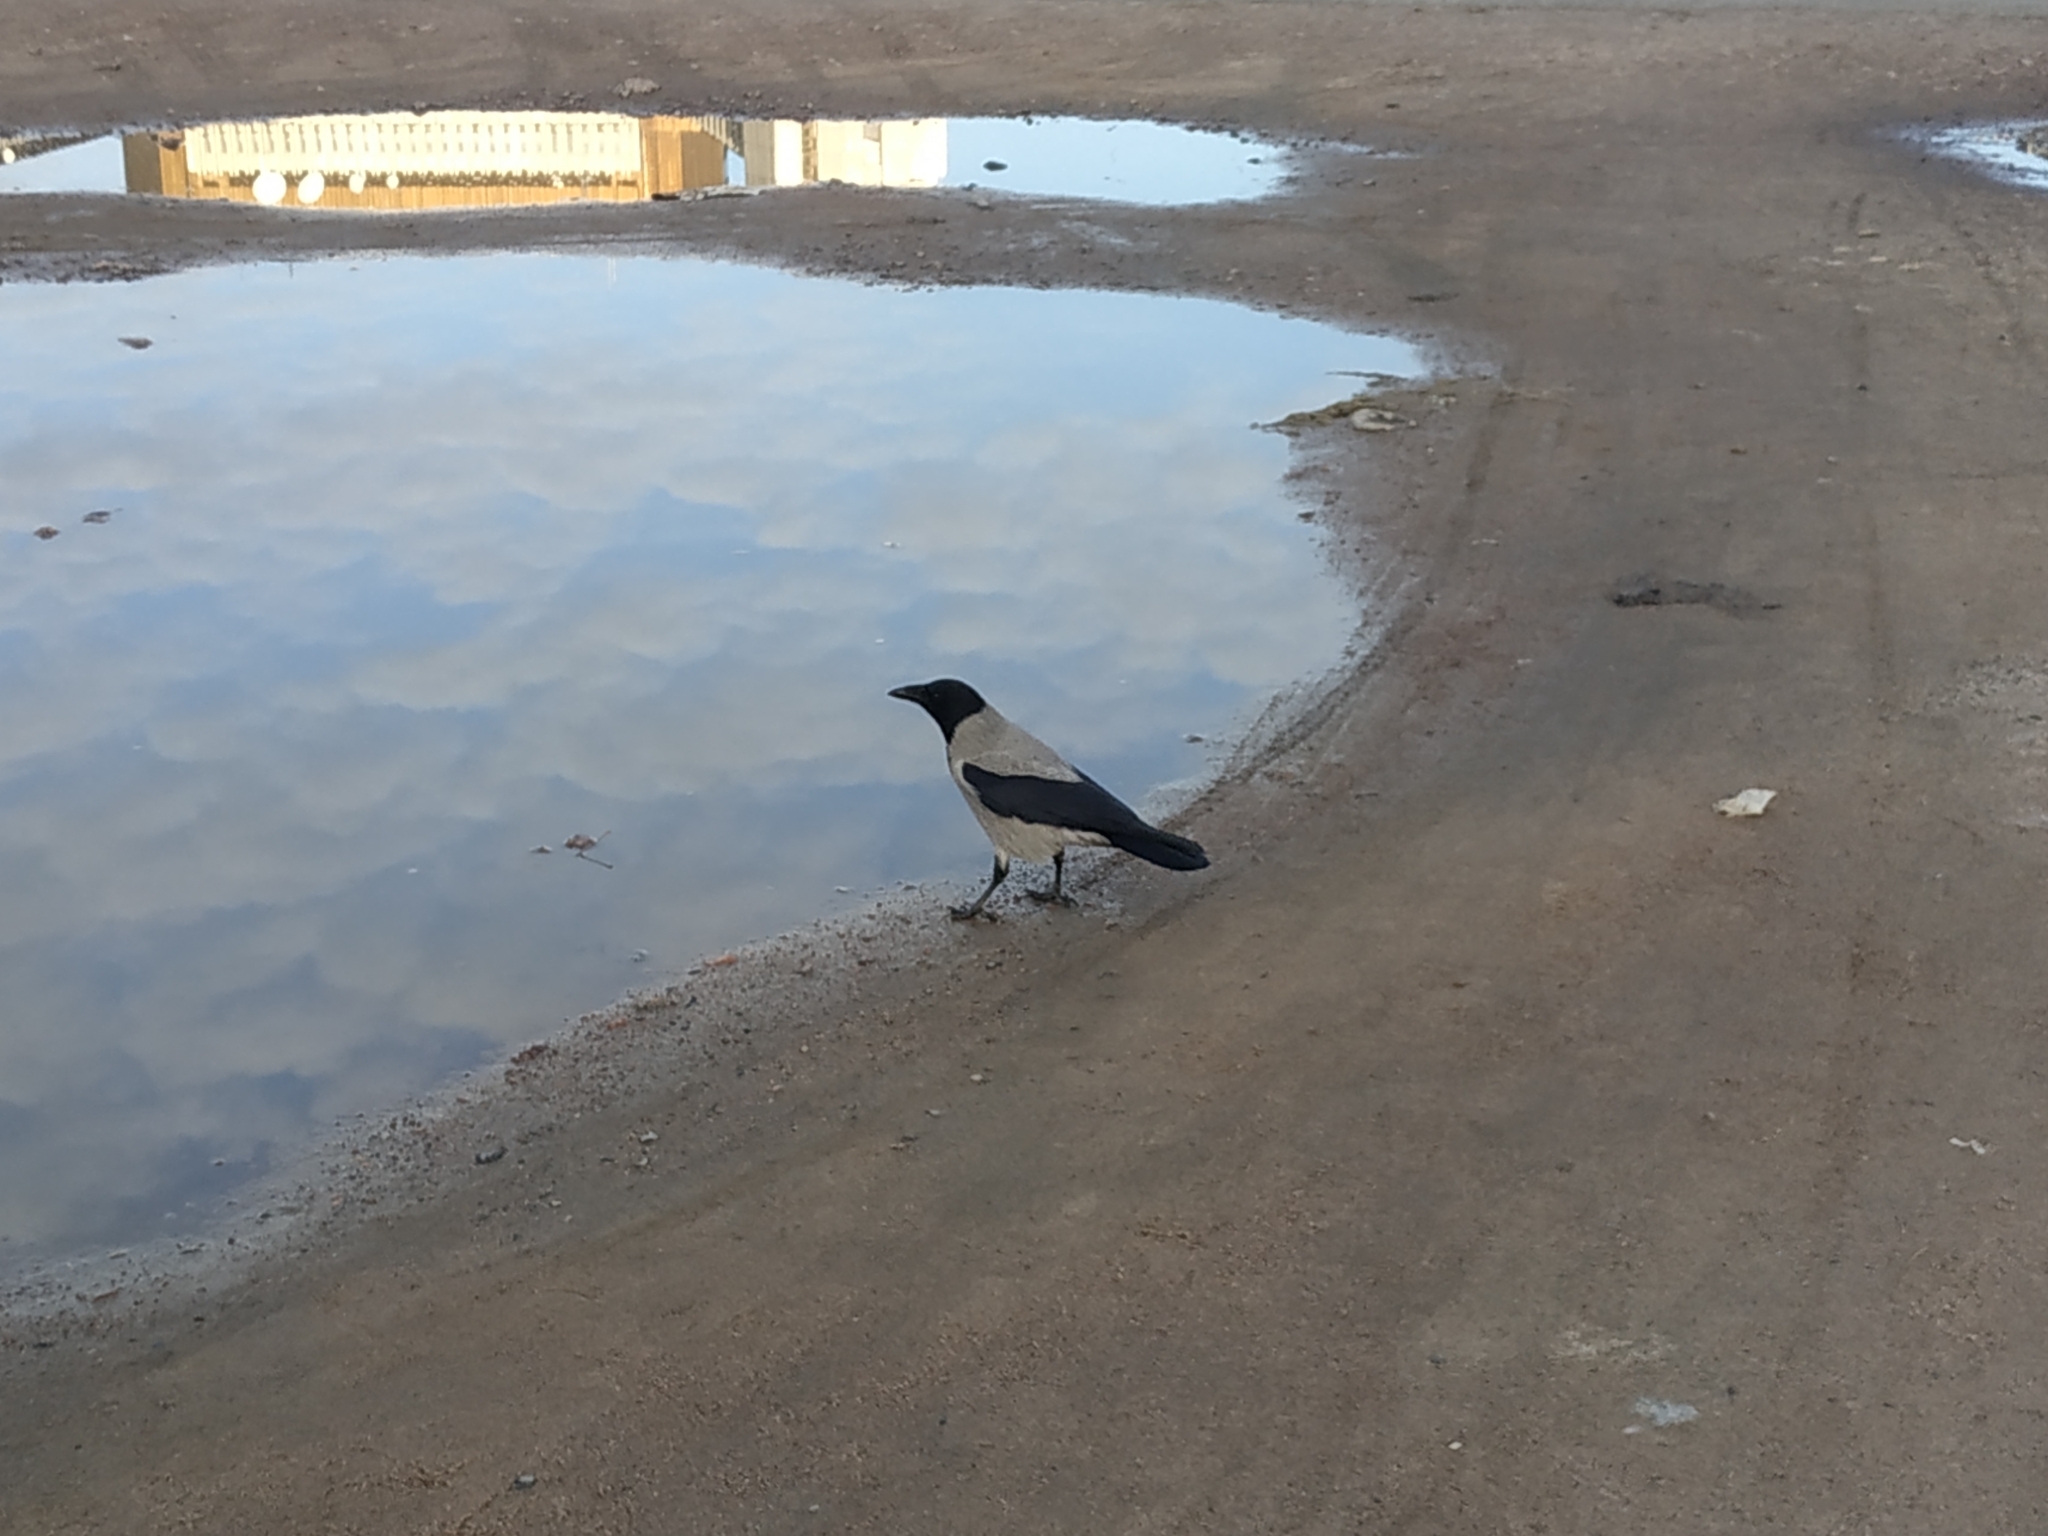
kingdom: Animalia
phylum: Chordata
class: Aves
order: Passeriformes
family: Corvidae
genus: Corvus
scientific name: Corvus cornix
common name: Hooded crow
